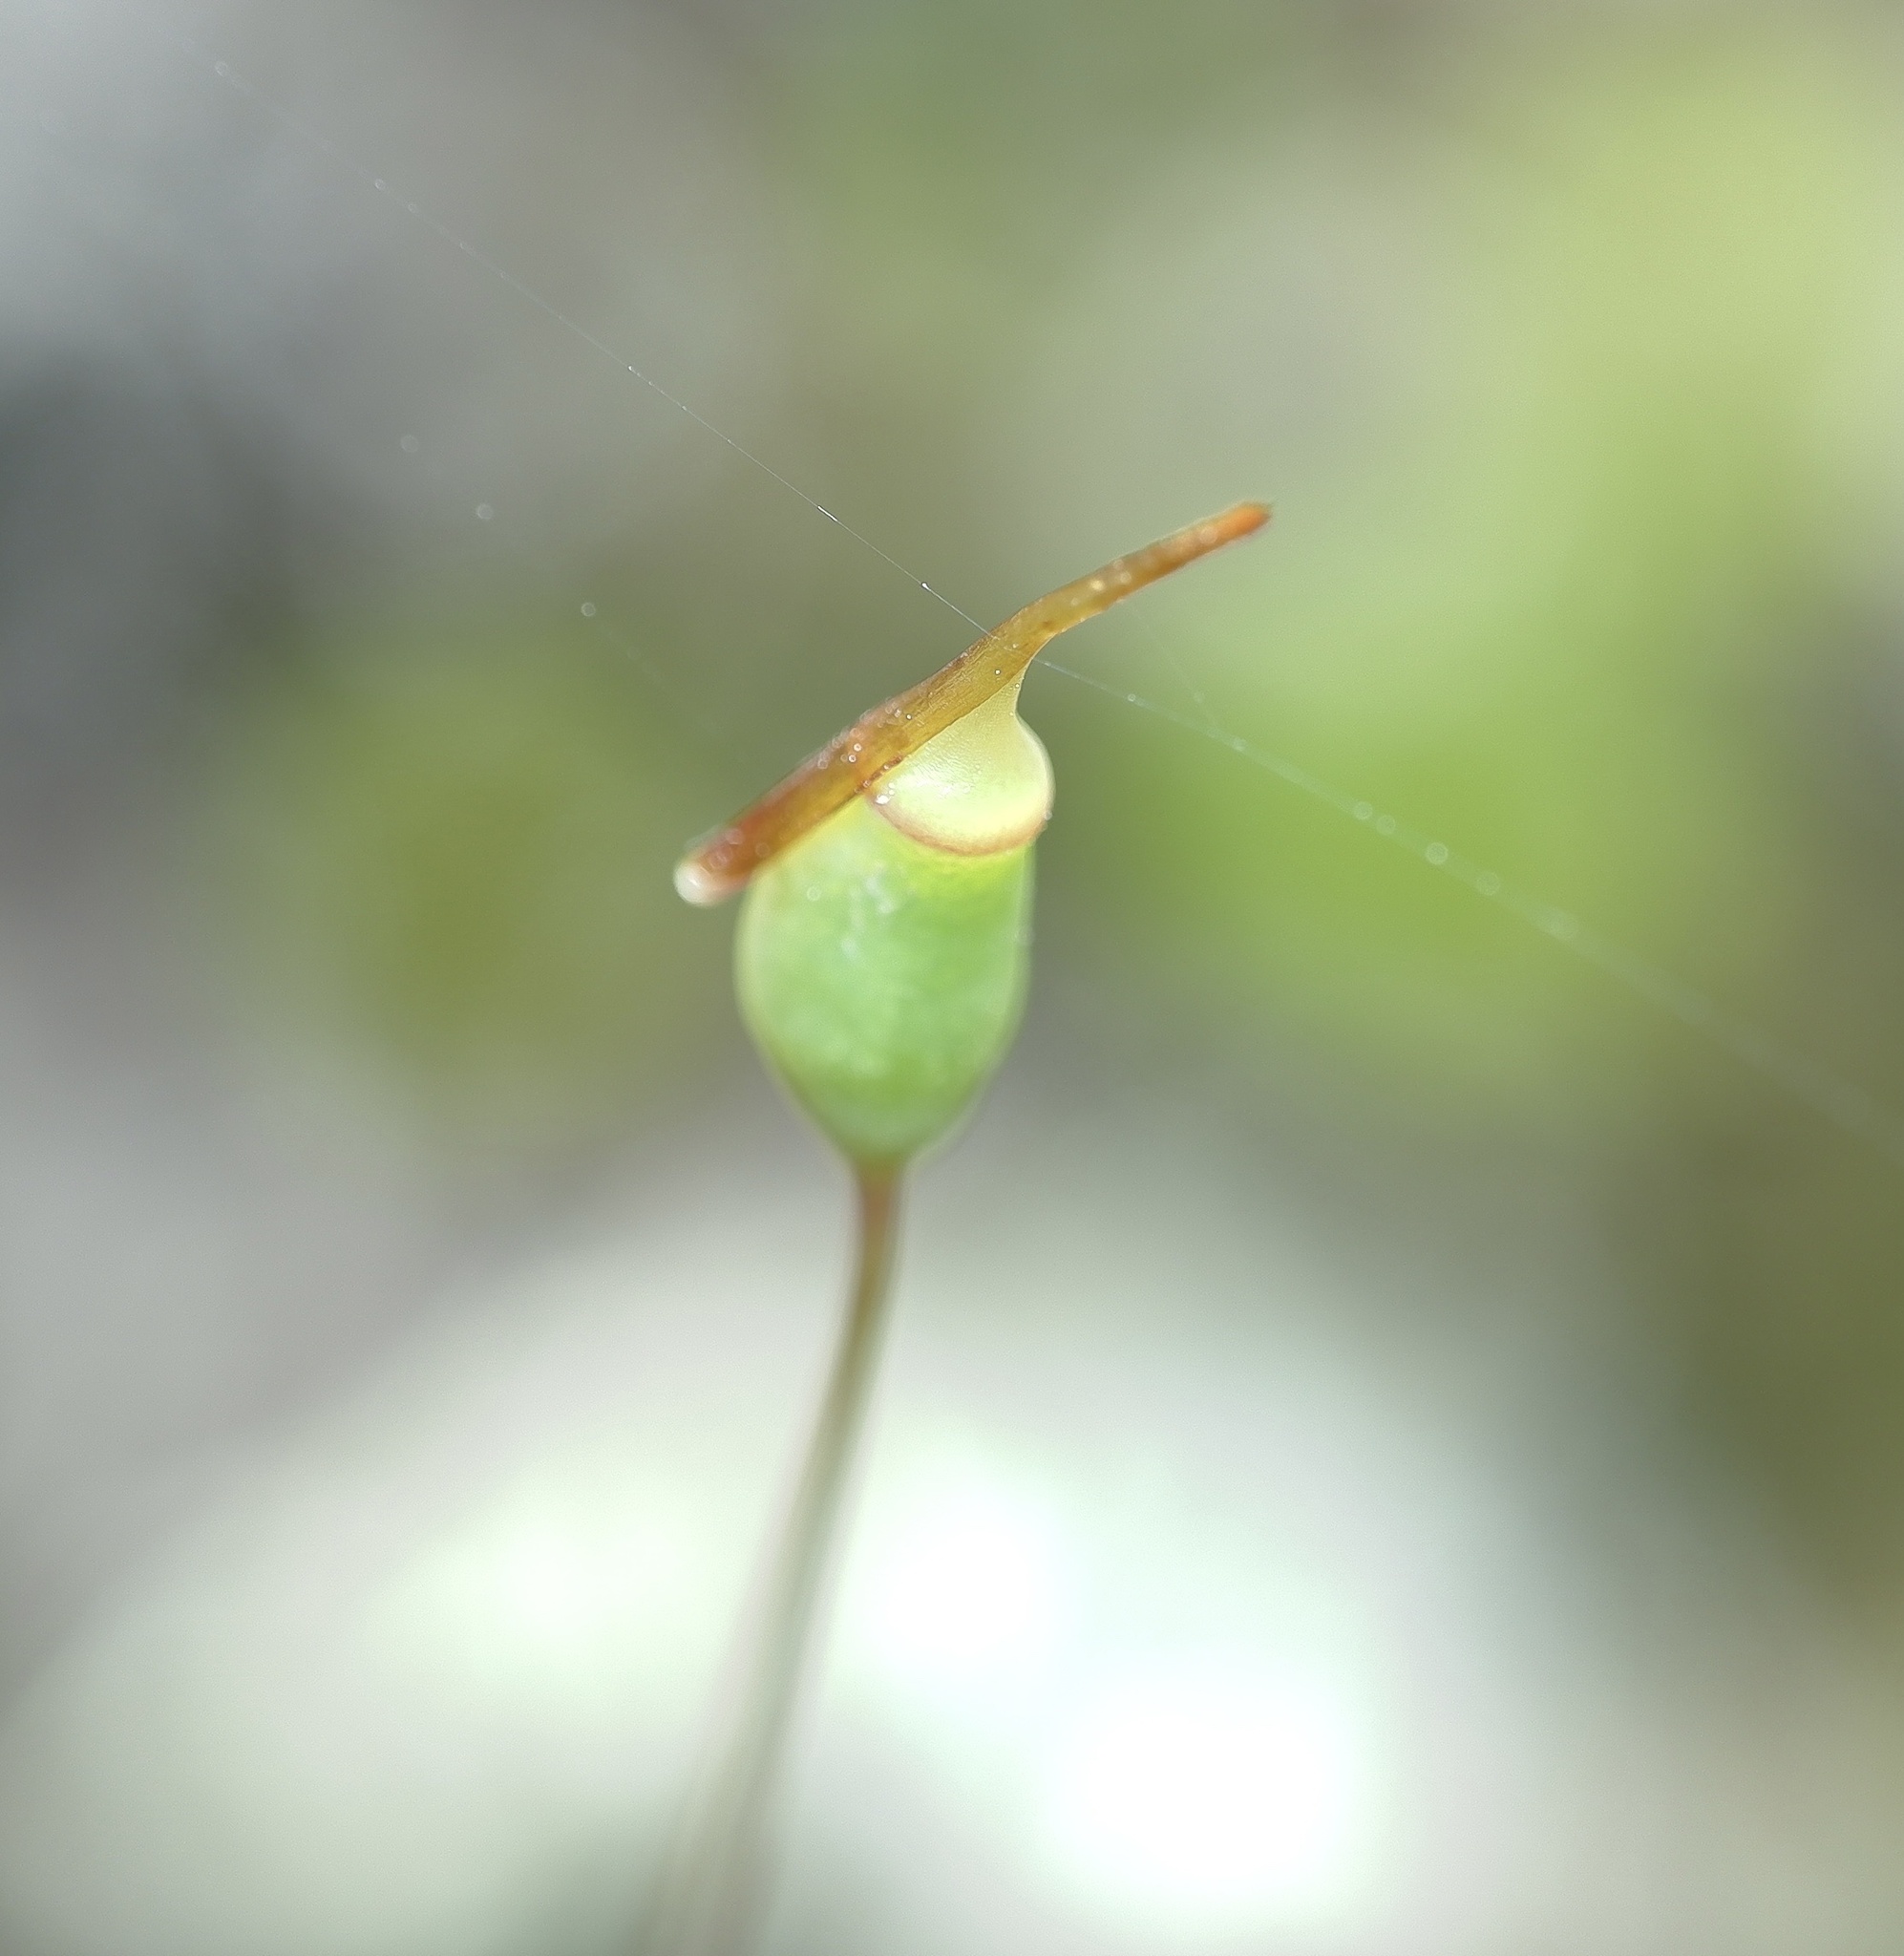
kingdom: Plantae
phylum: Bryophyta
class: Polytrichopsida
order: Polytrichales
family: Polytrichaceae
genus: Polytrichadelphus
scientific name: Polytrichadelphus magellanicus
